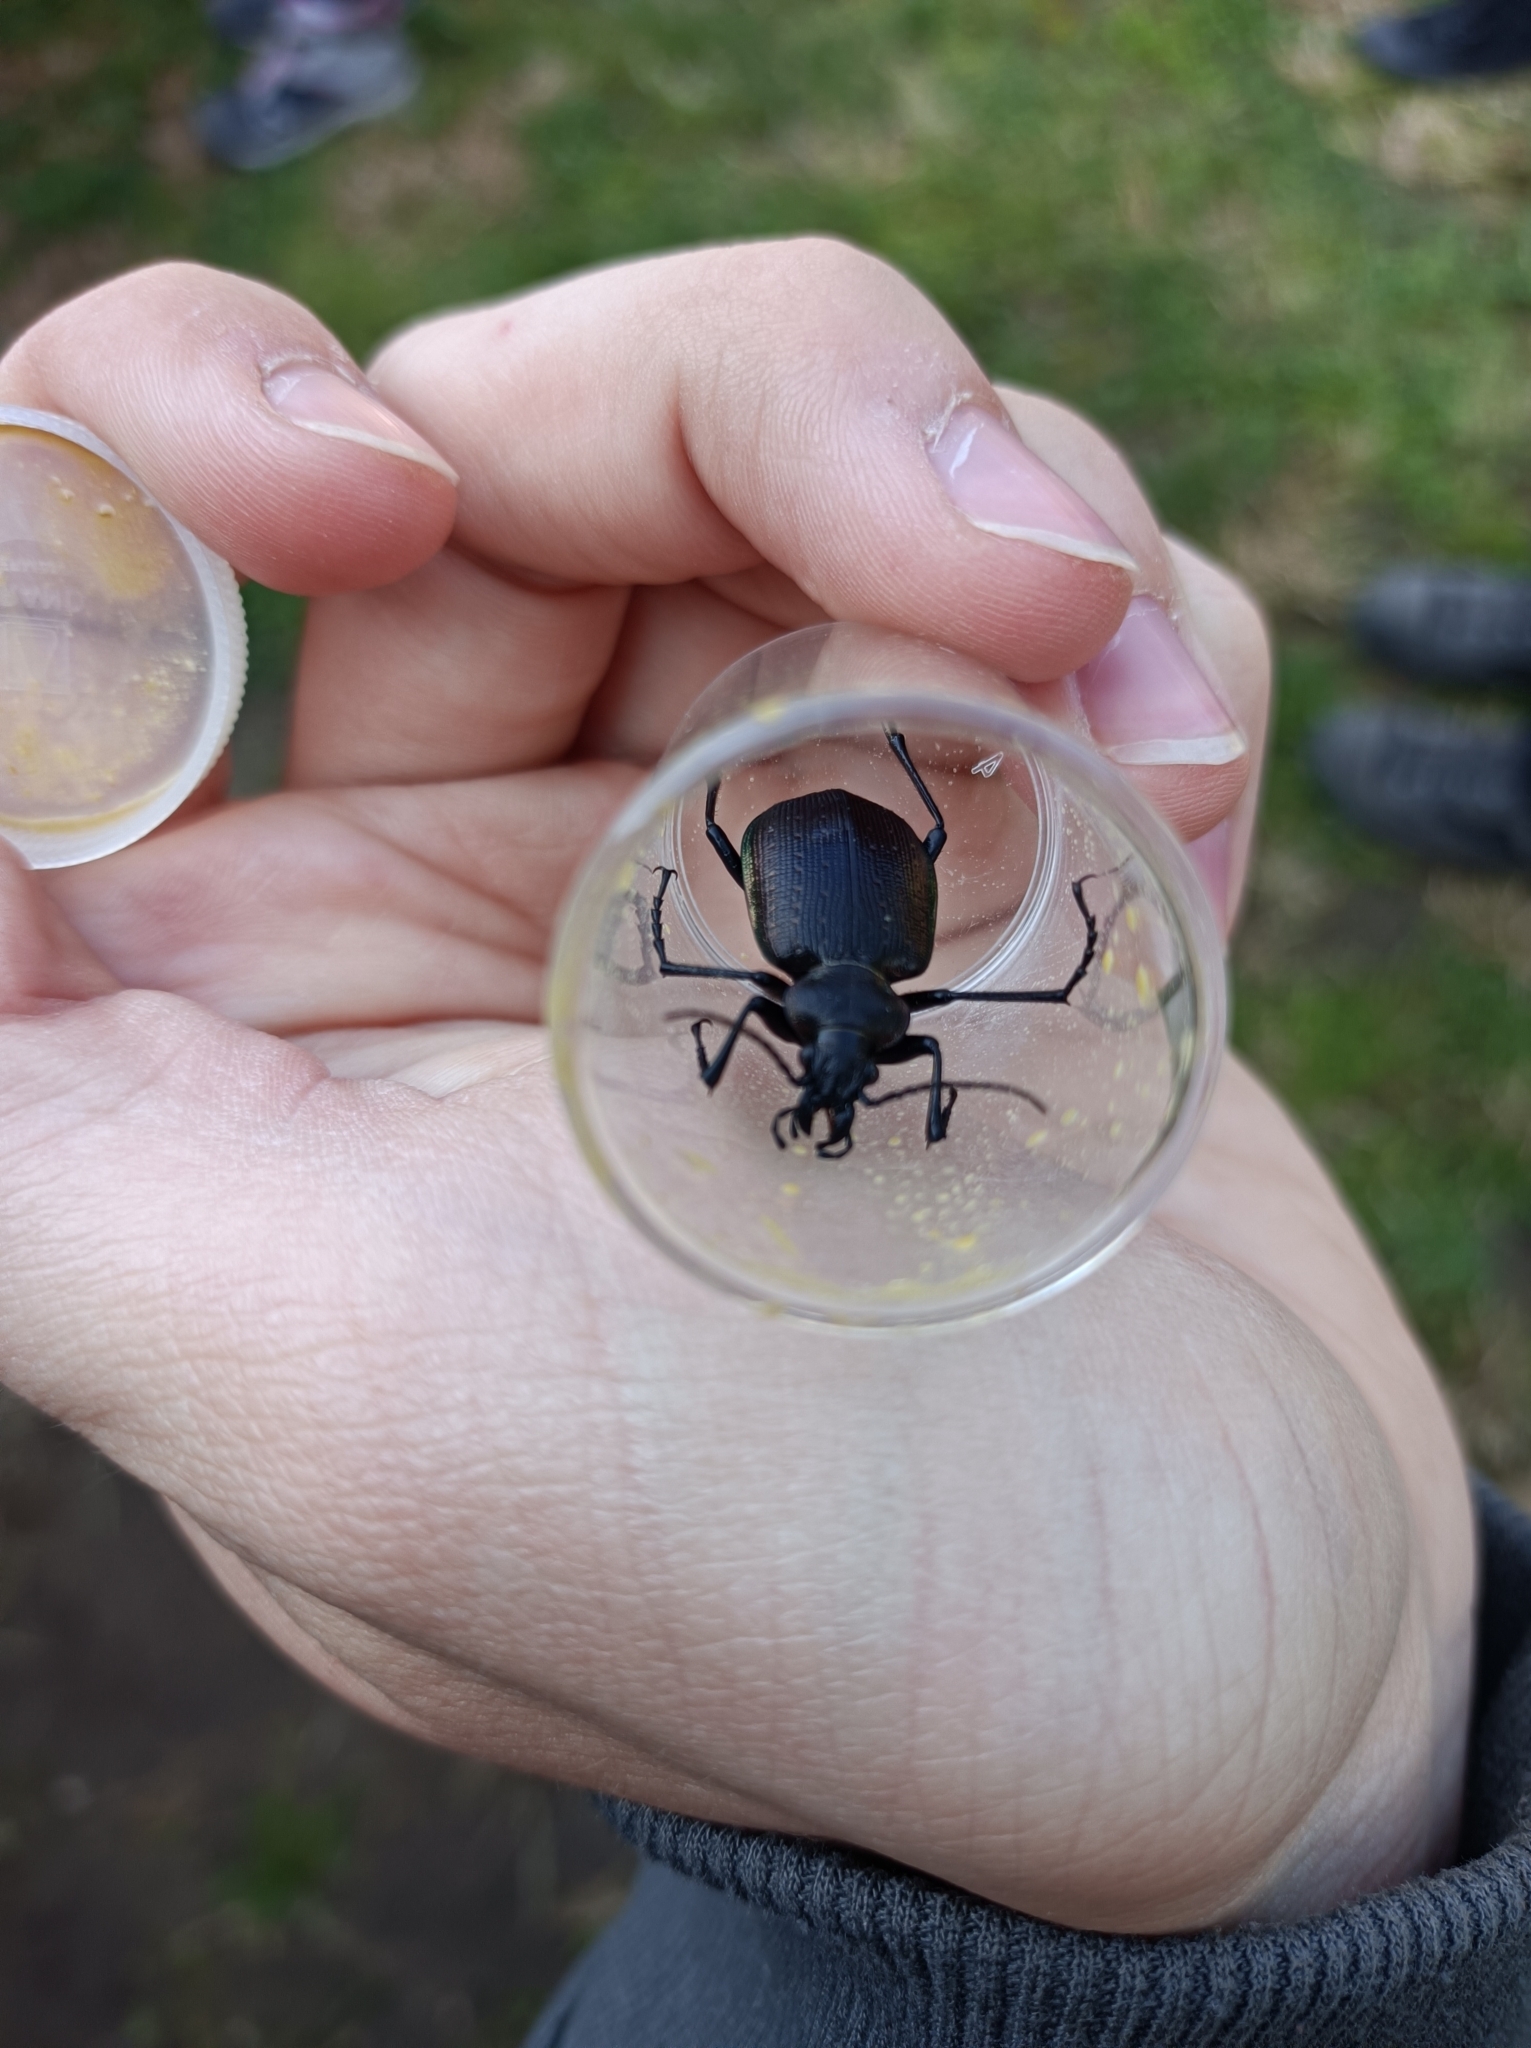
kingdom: Animalia
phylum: Arthropoda
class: Insecta
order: Coleoptera
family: Carabidae
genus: Calosoma
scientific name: Calosoma inquisitor
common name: Caterpillar-hunter
